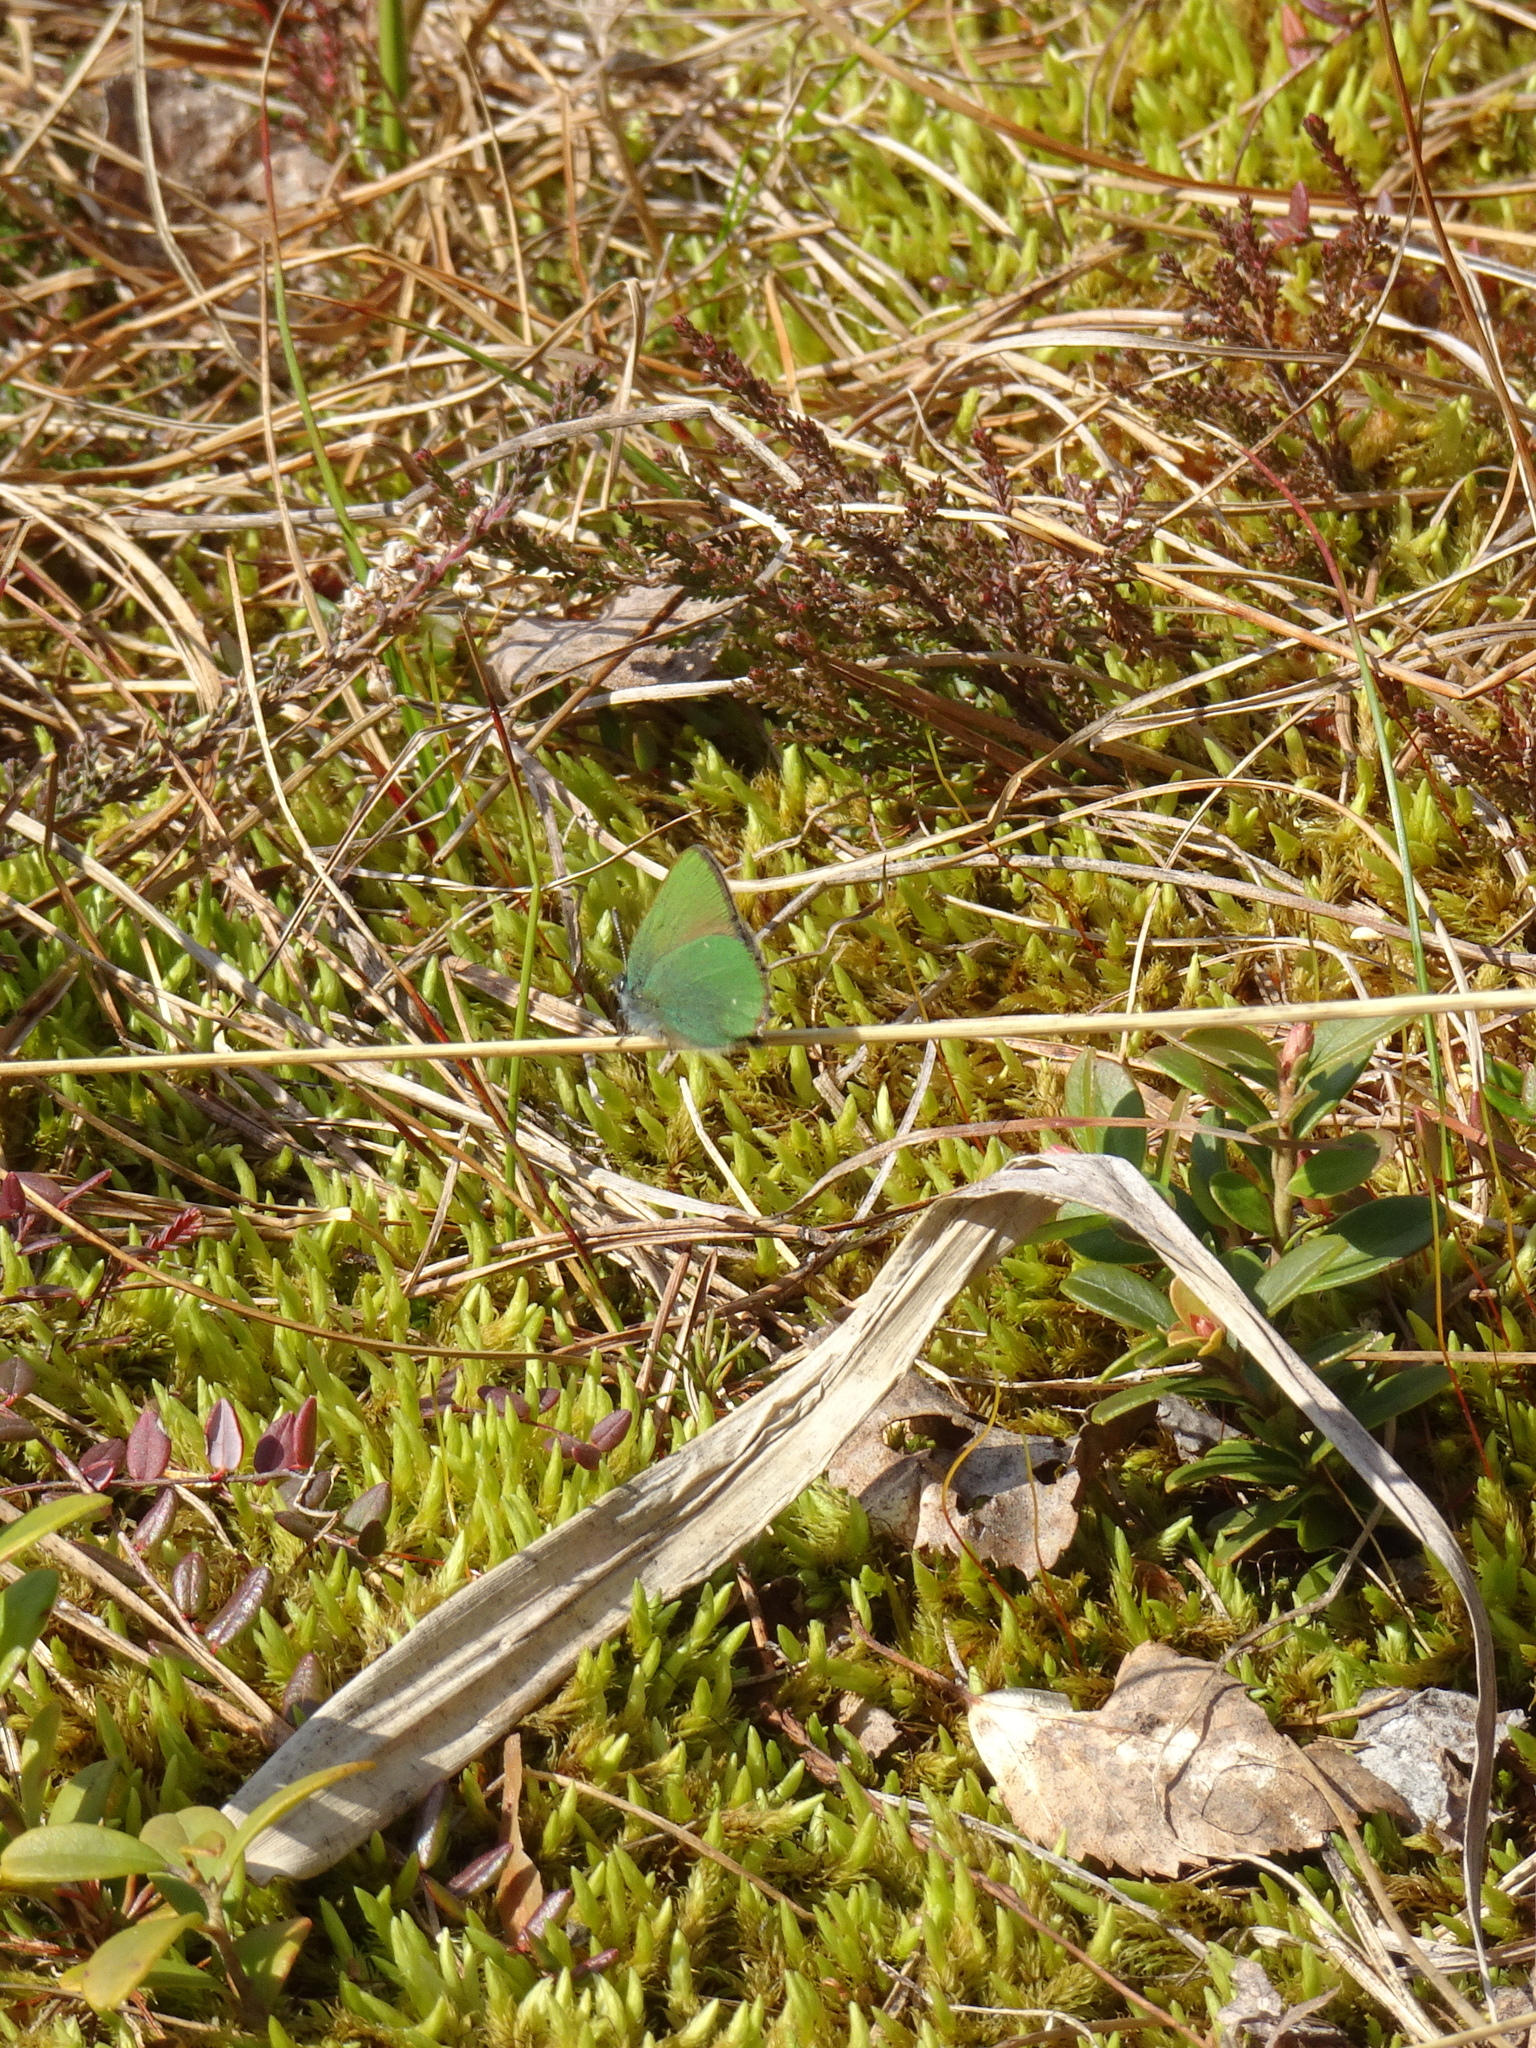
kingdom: Animalia
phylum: Arthropoda
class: Insecta
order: Lepidoptera
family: Lycaenidae
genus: Callophrys
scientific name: Callophrys rubi
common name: Green hairstreak
